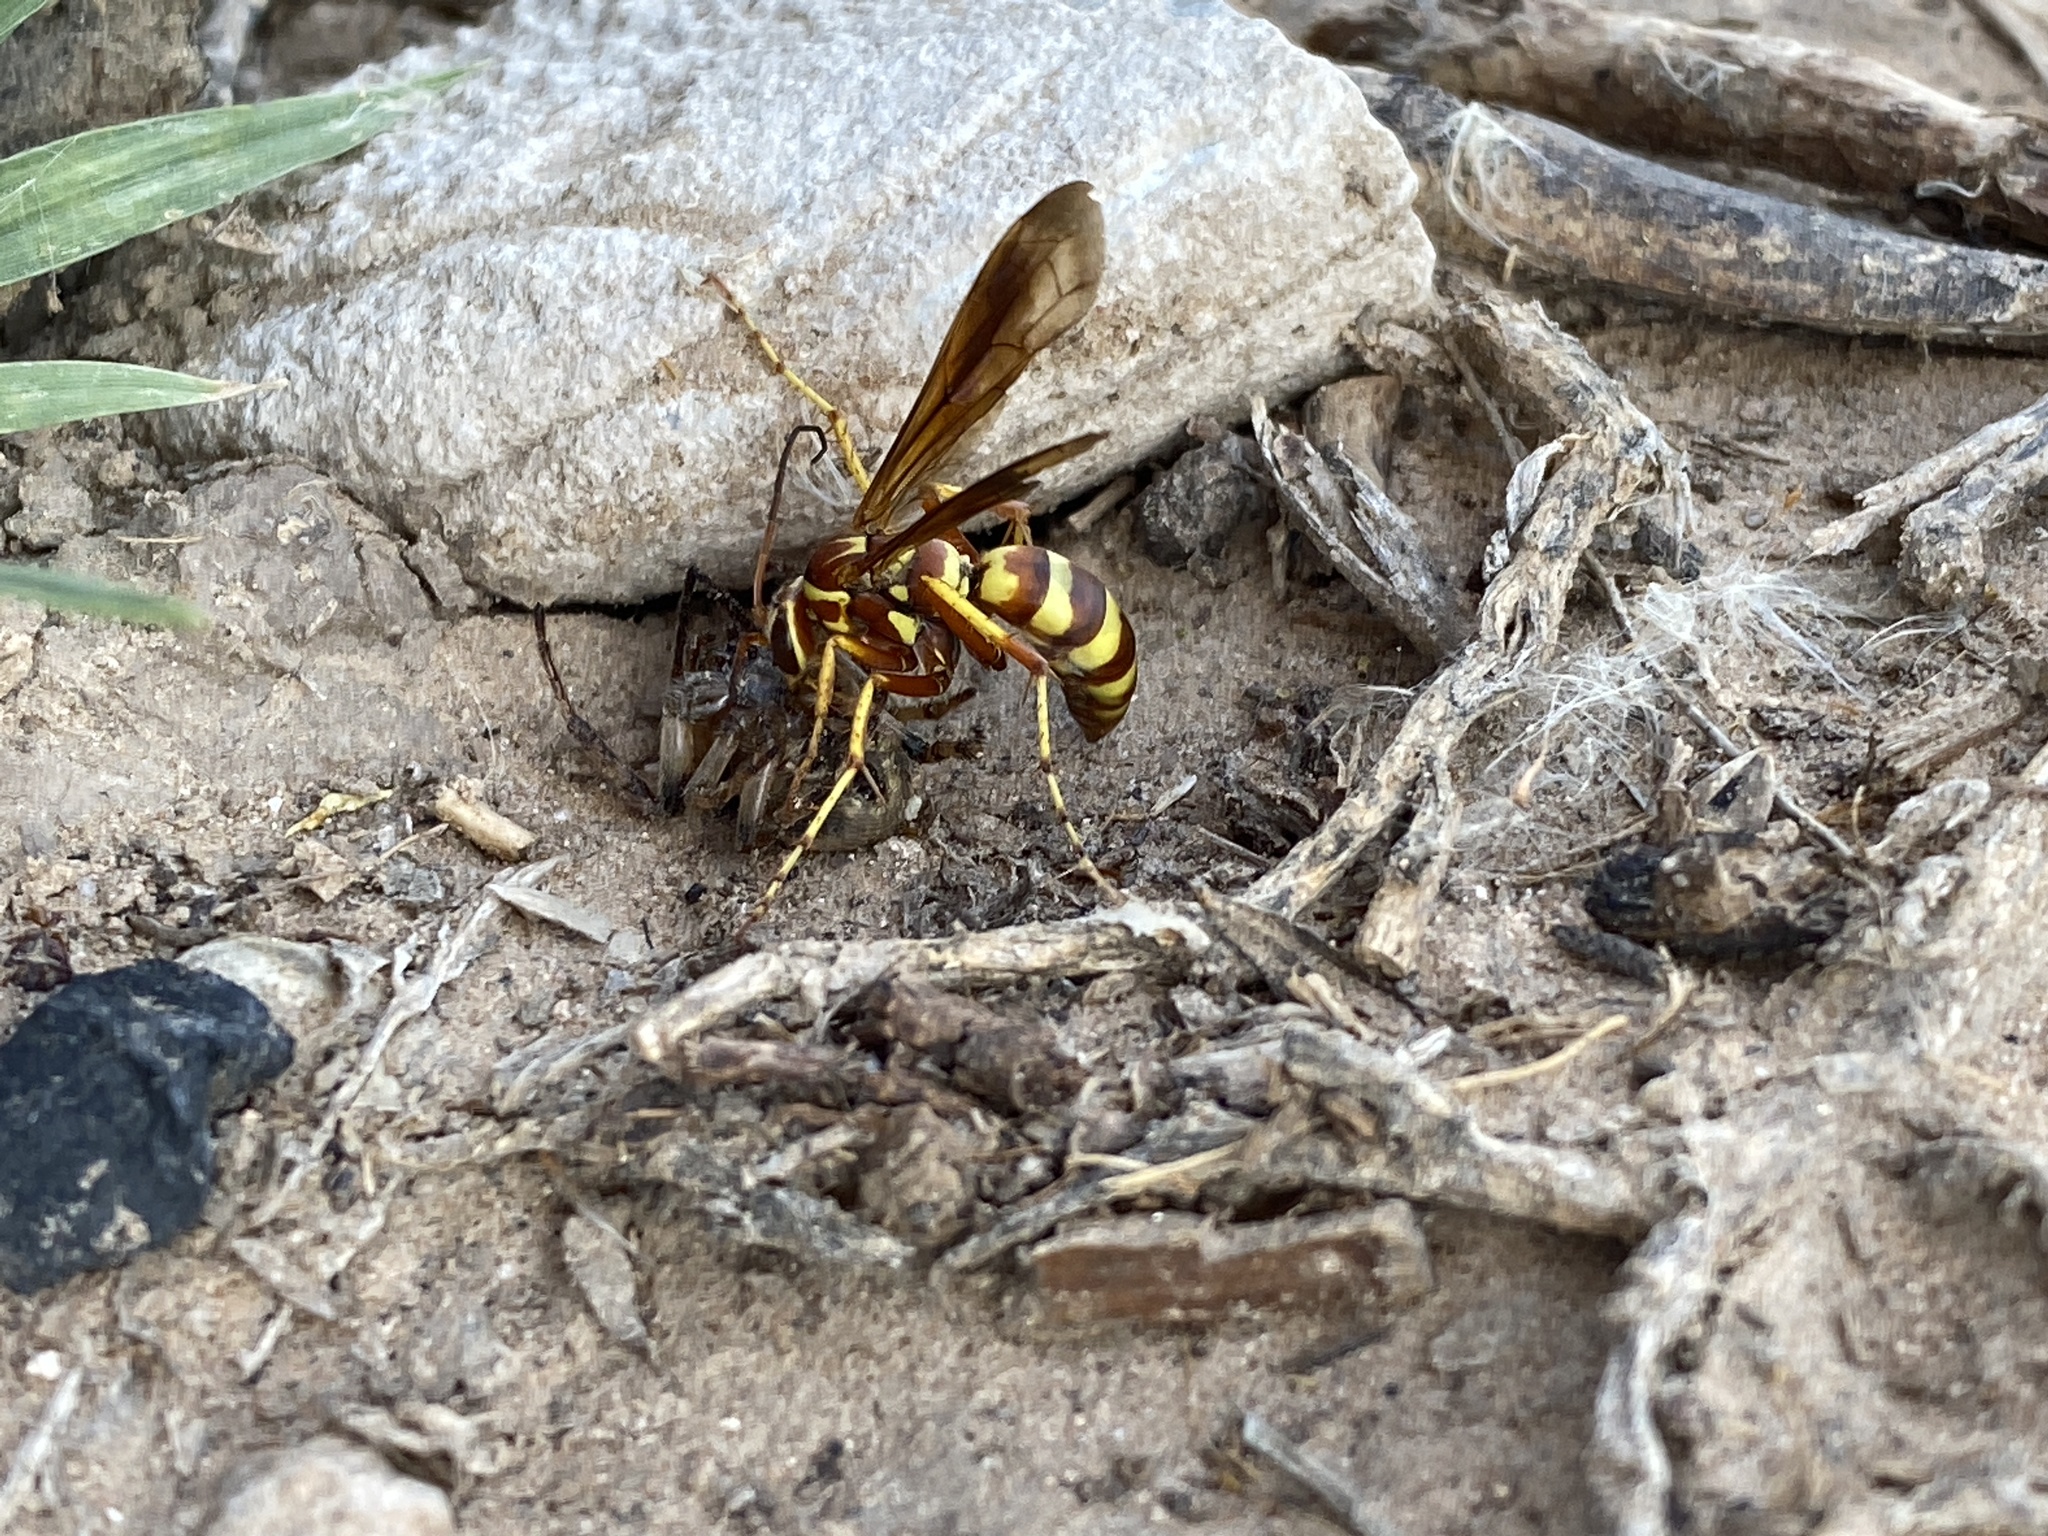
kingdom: Animalia
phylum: Arthropoda
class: Insecta
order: Hymenoptera
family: Pompilidae
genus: Poecilopompilus
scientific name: Poecilopompilus interruptus
